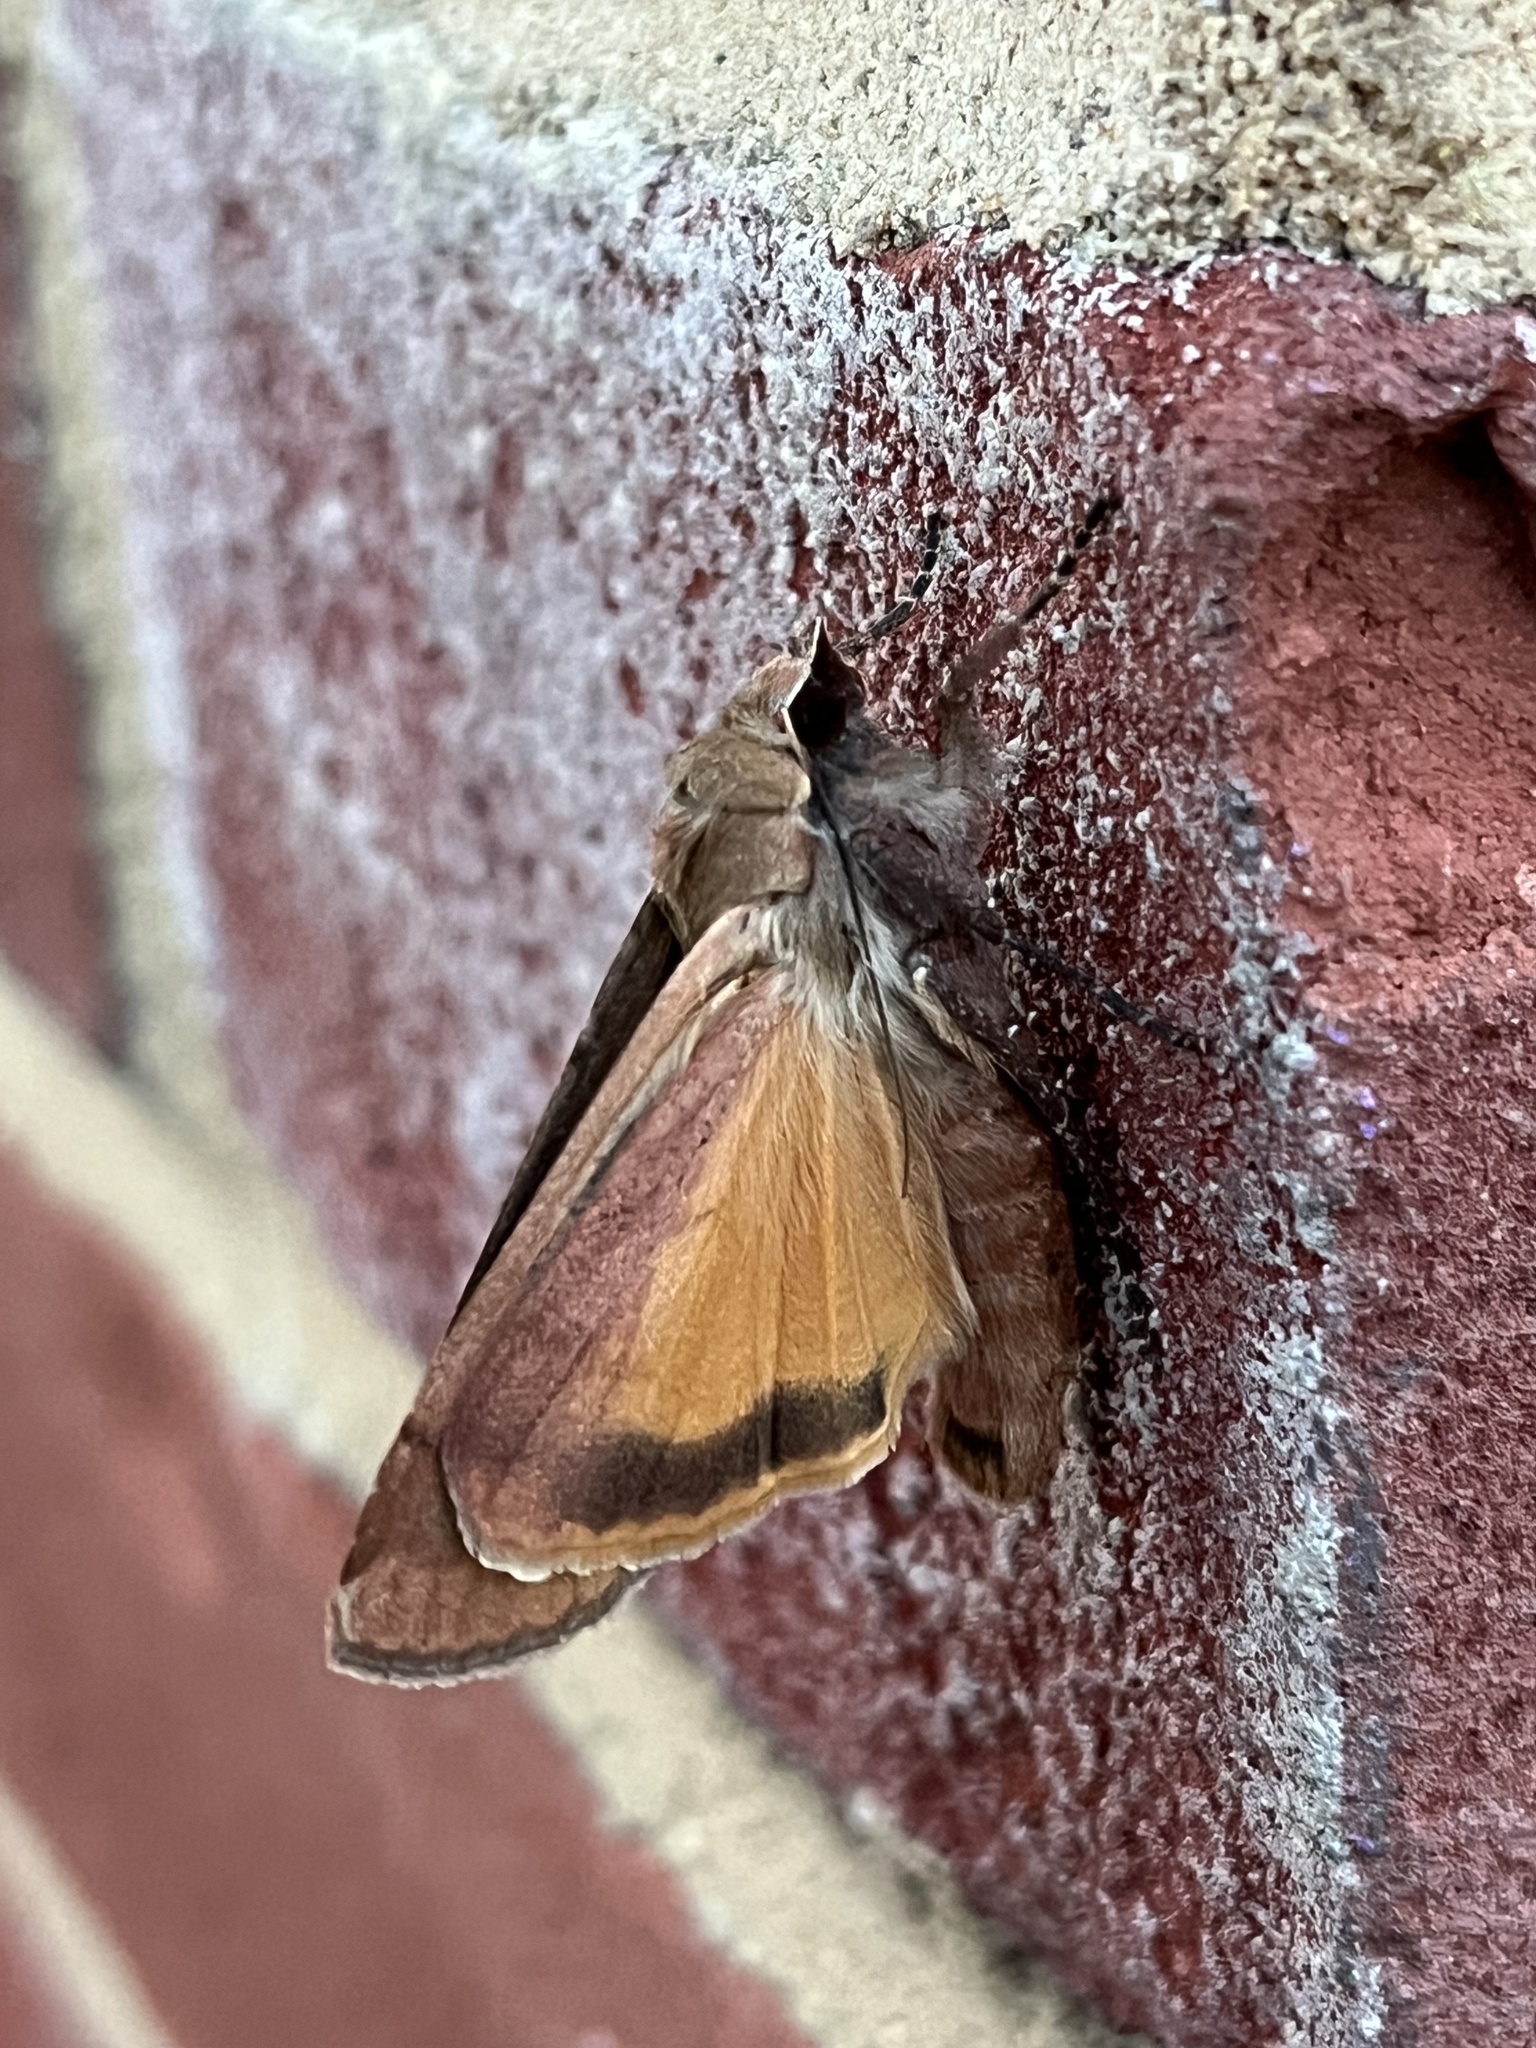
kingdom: Animalia
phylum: Arthropoda
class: Insecta
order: Lepidoptera
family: Noctuidae
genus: Noctua
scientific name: Noctua pronuba
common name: Large yellow underwing
